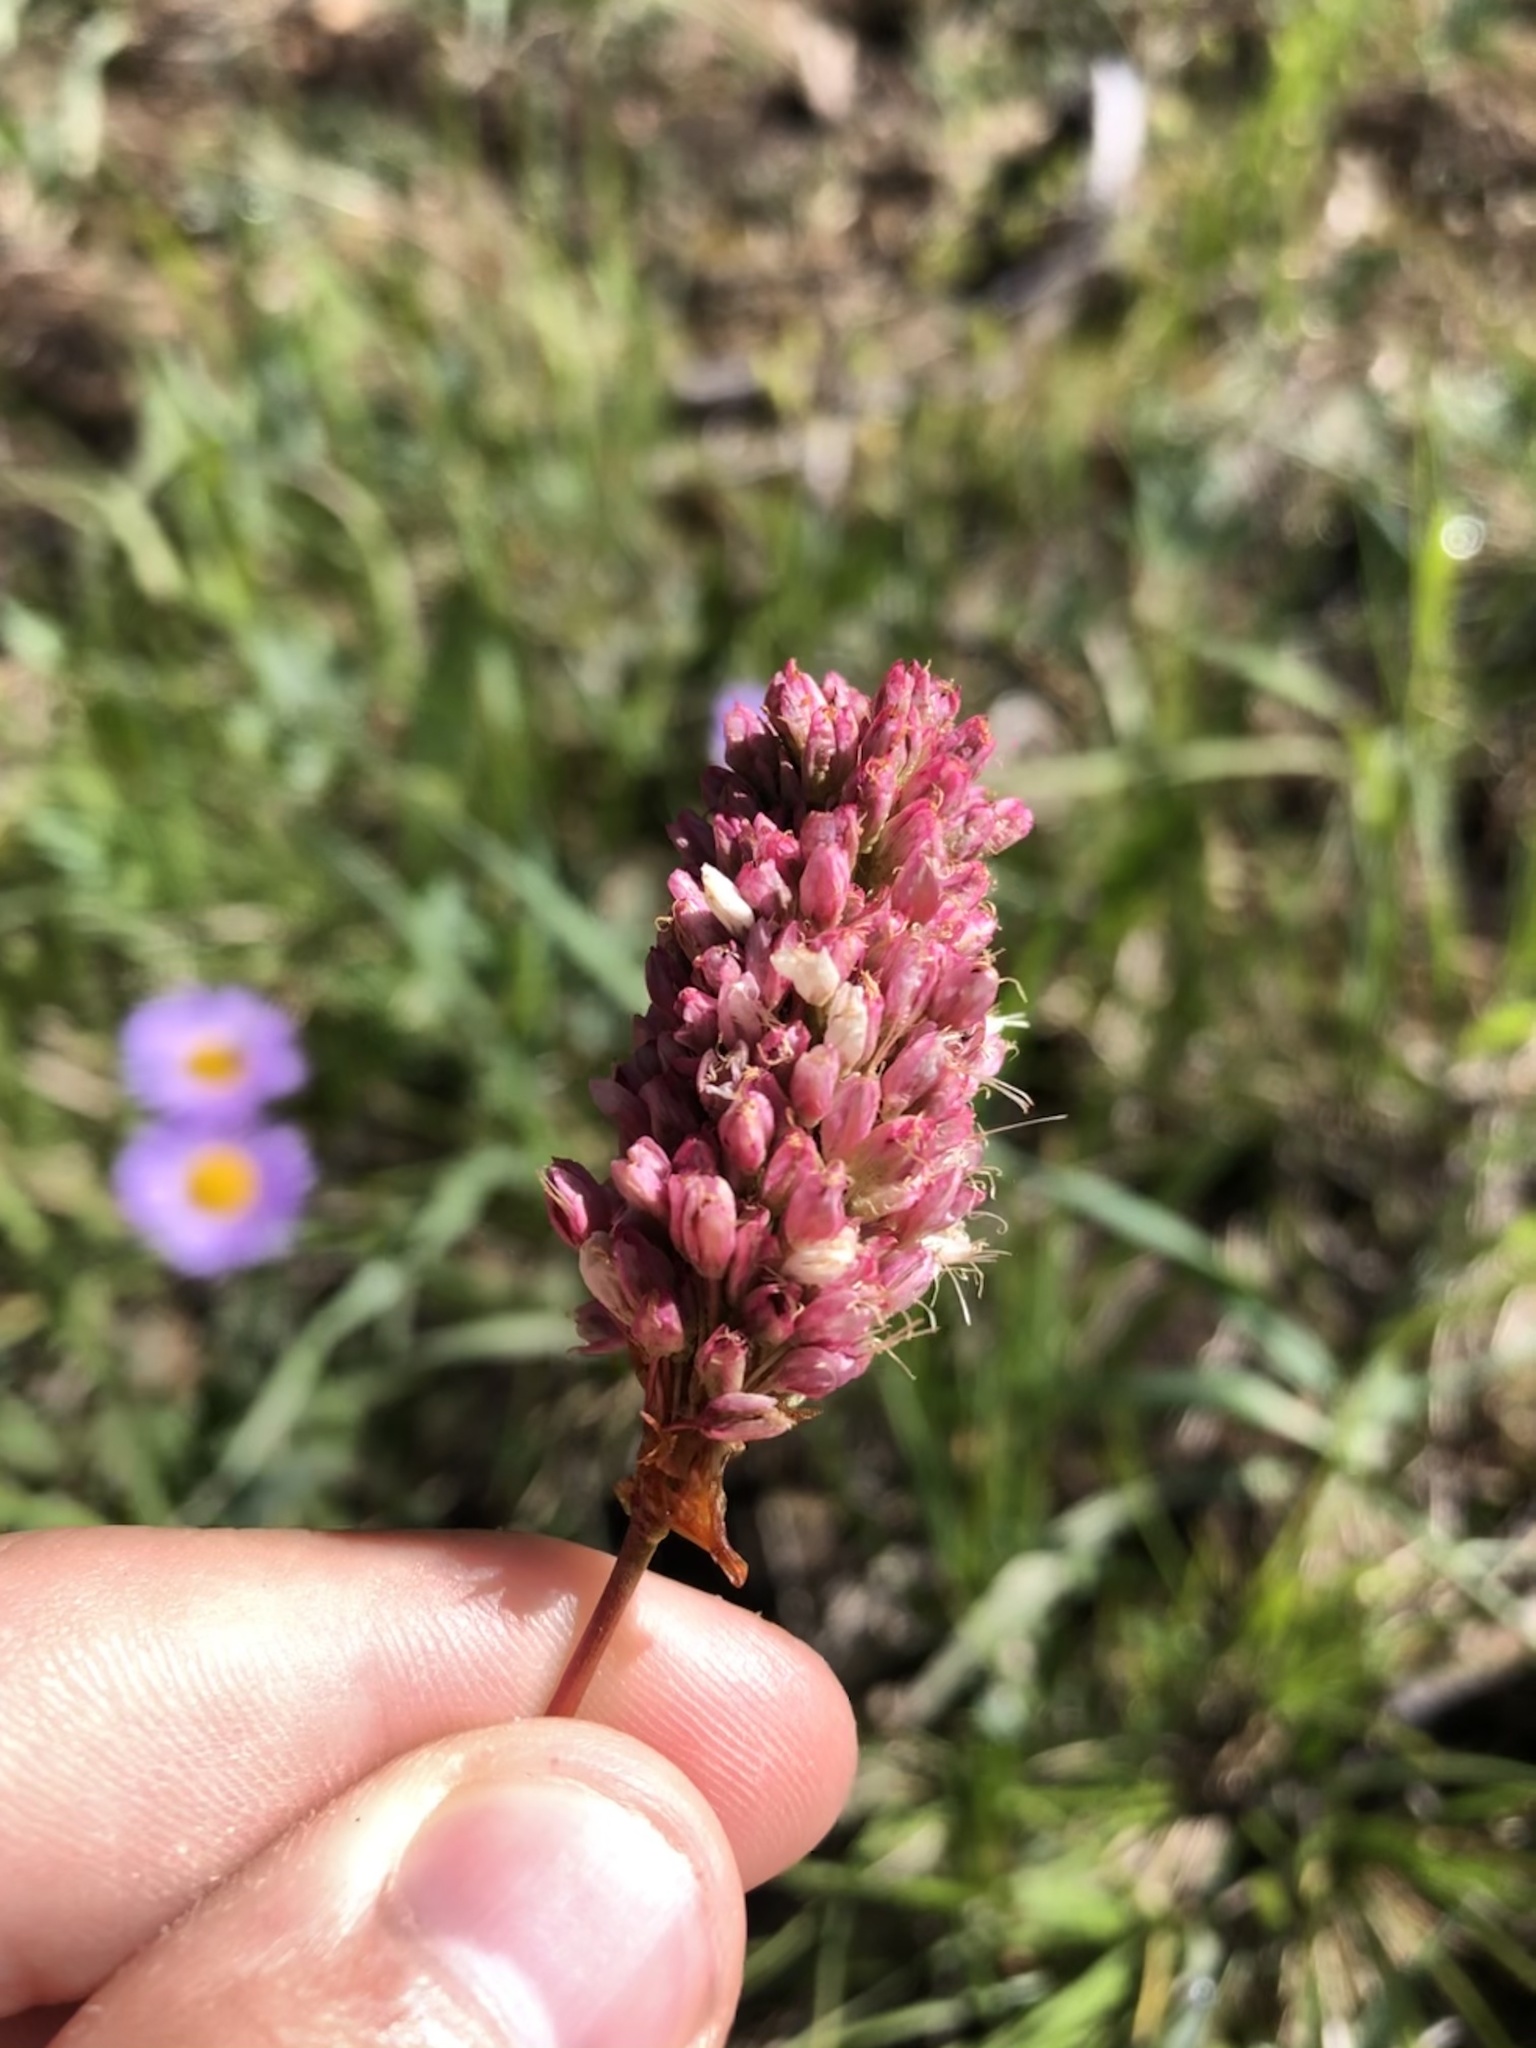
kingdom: Plantae
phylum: Tracheophyta
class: Magnoliopsida
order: Caryophyllales
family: Polygonaceae
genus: Bistorta
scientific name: Bistorta bistortoides
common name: American bistort
